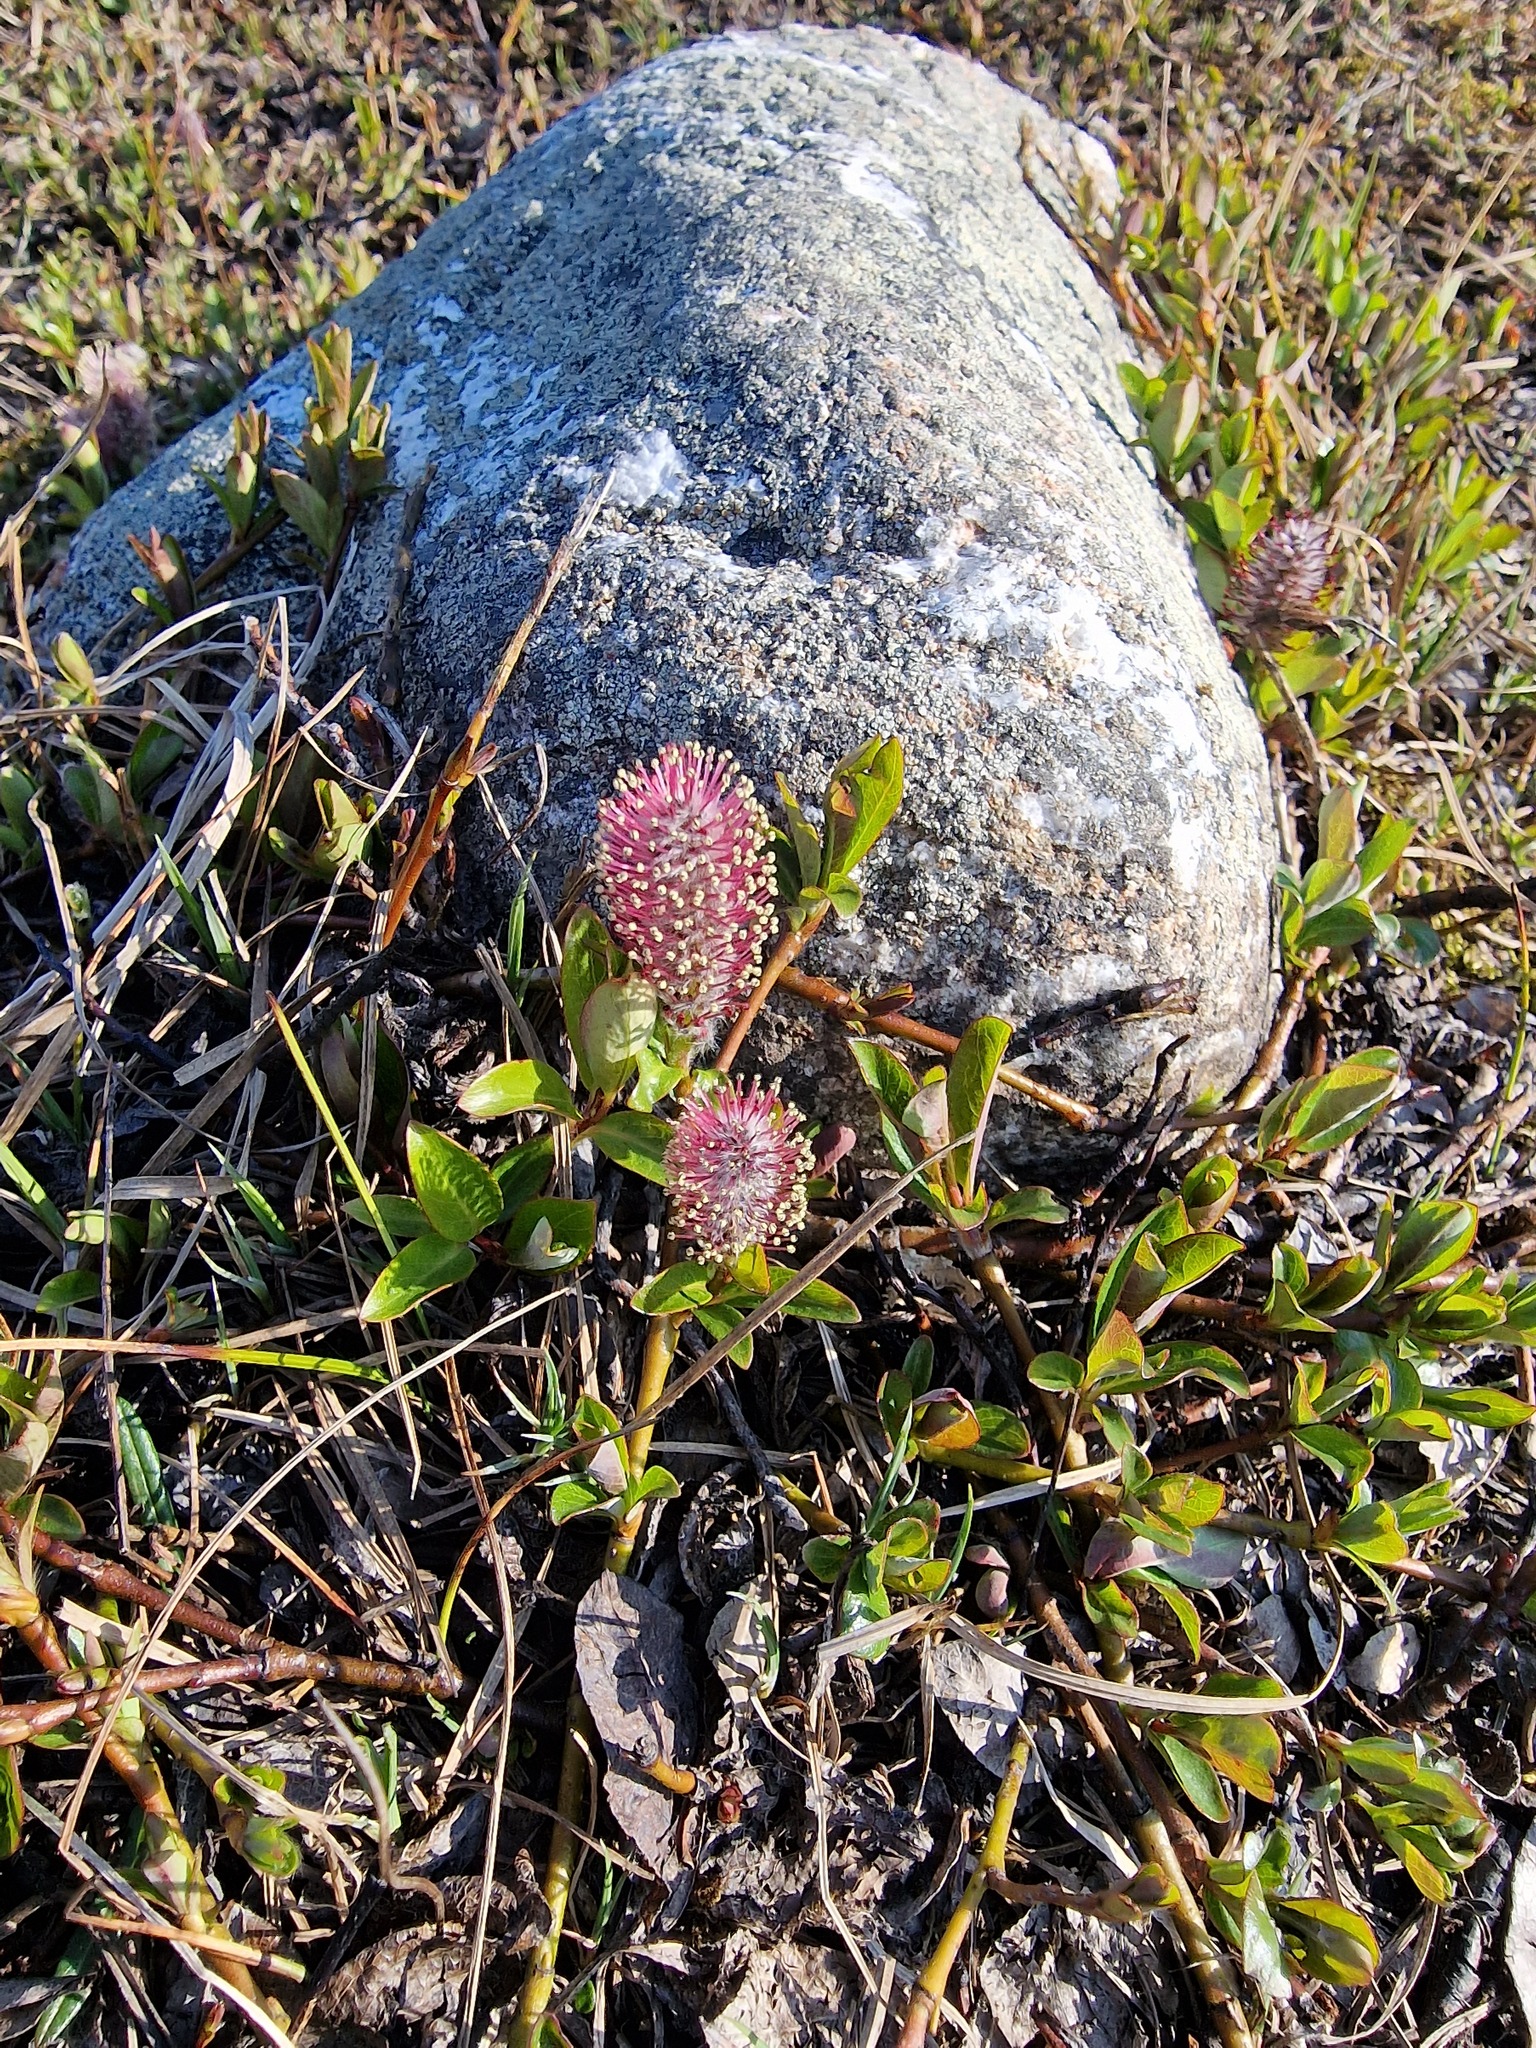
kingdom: Plantae
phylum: Tracheophyta
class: Magnoliopsida
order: Malpighiales
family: Salicaceae
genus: Salix
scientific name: Salix arctica
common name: Arctic willow
